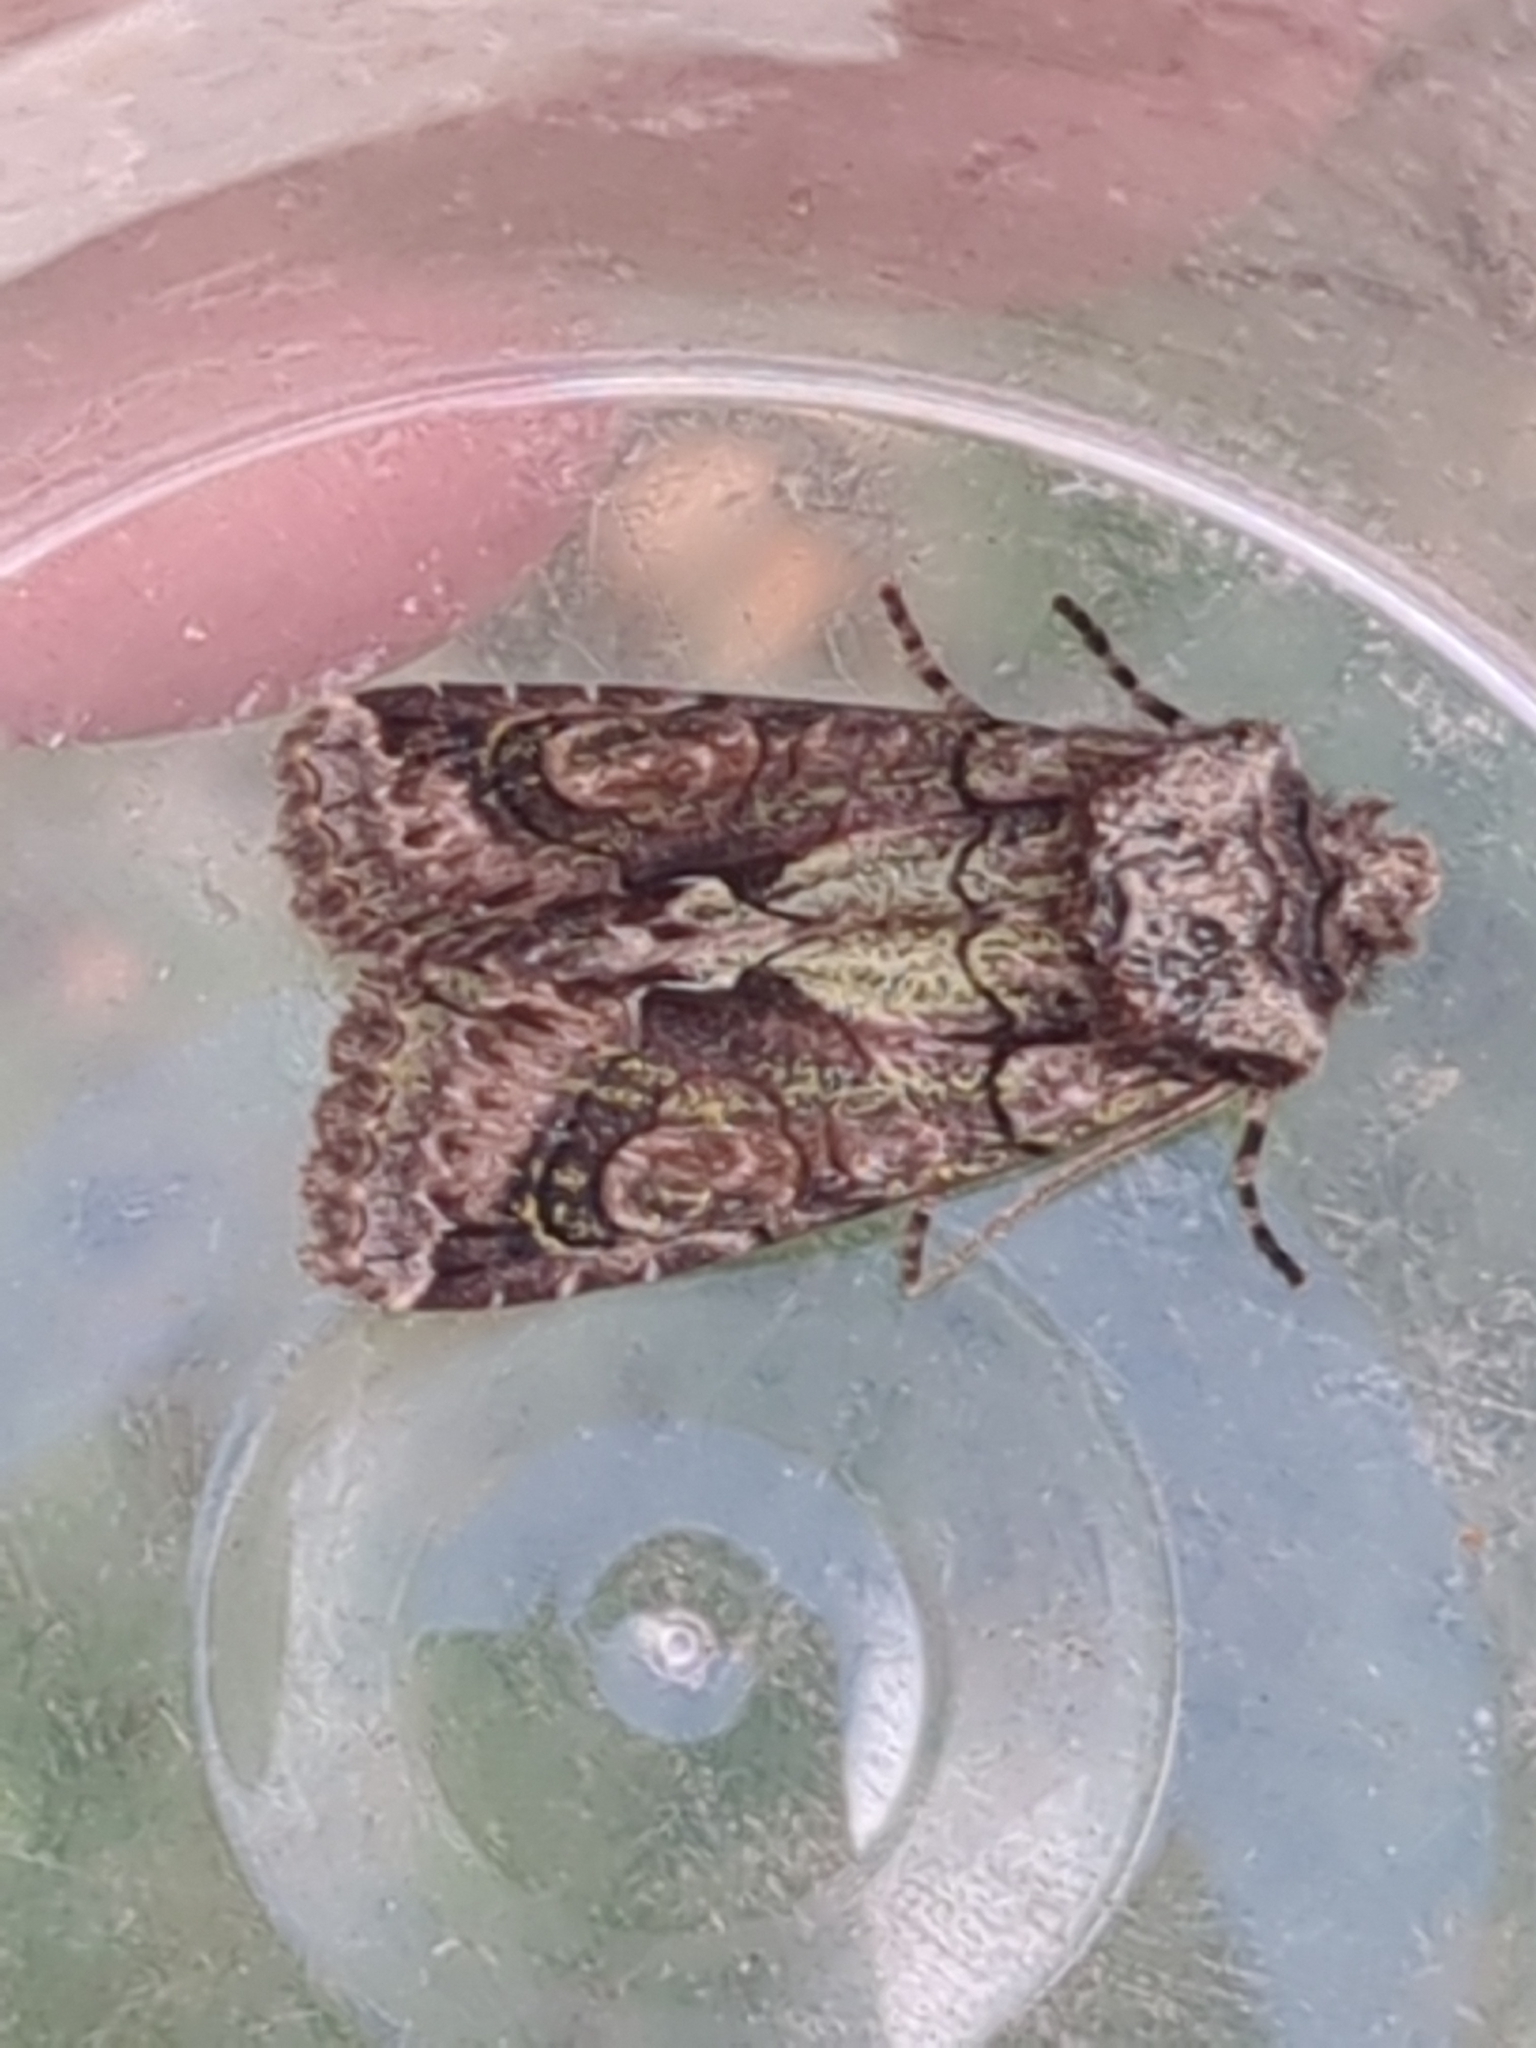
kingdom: Animalia
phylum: Arthropoda
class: Insecta
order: Lepidoptera
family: Noctuidae
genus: Allophyes
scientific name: Allophyes oxyacanthae
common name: Green-brindled crescent
